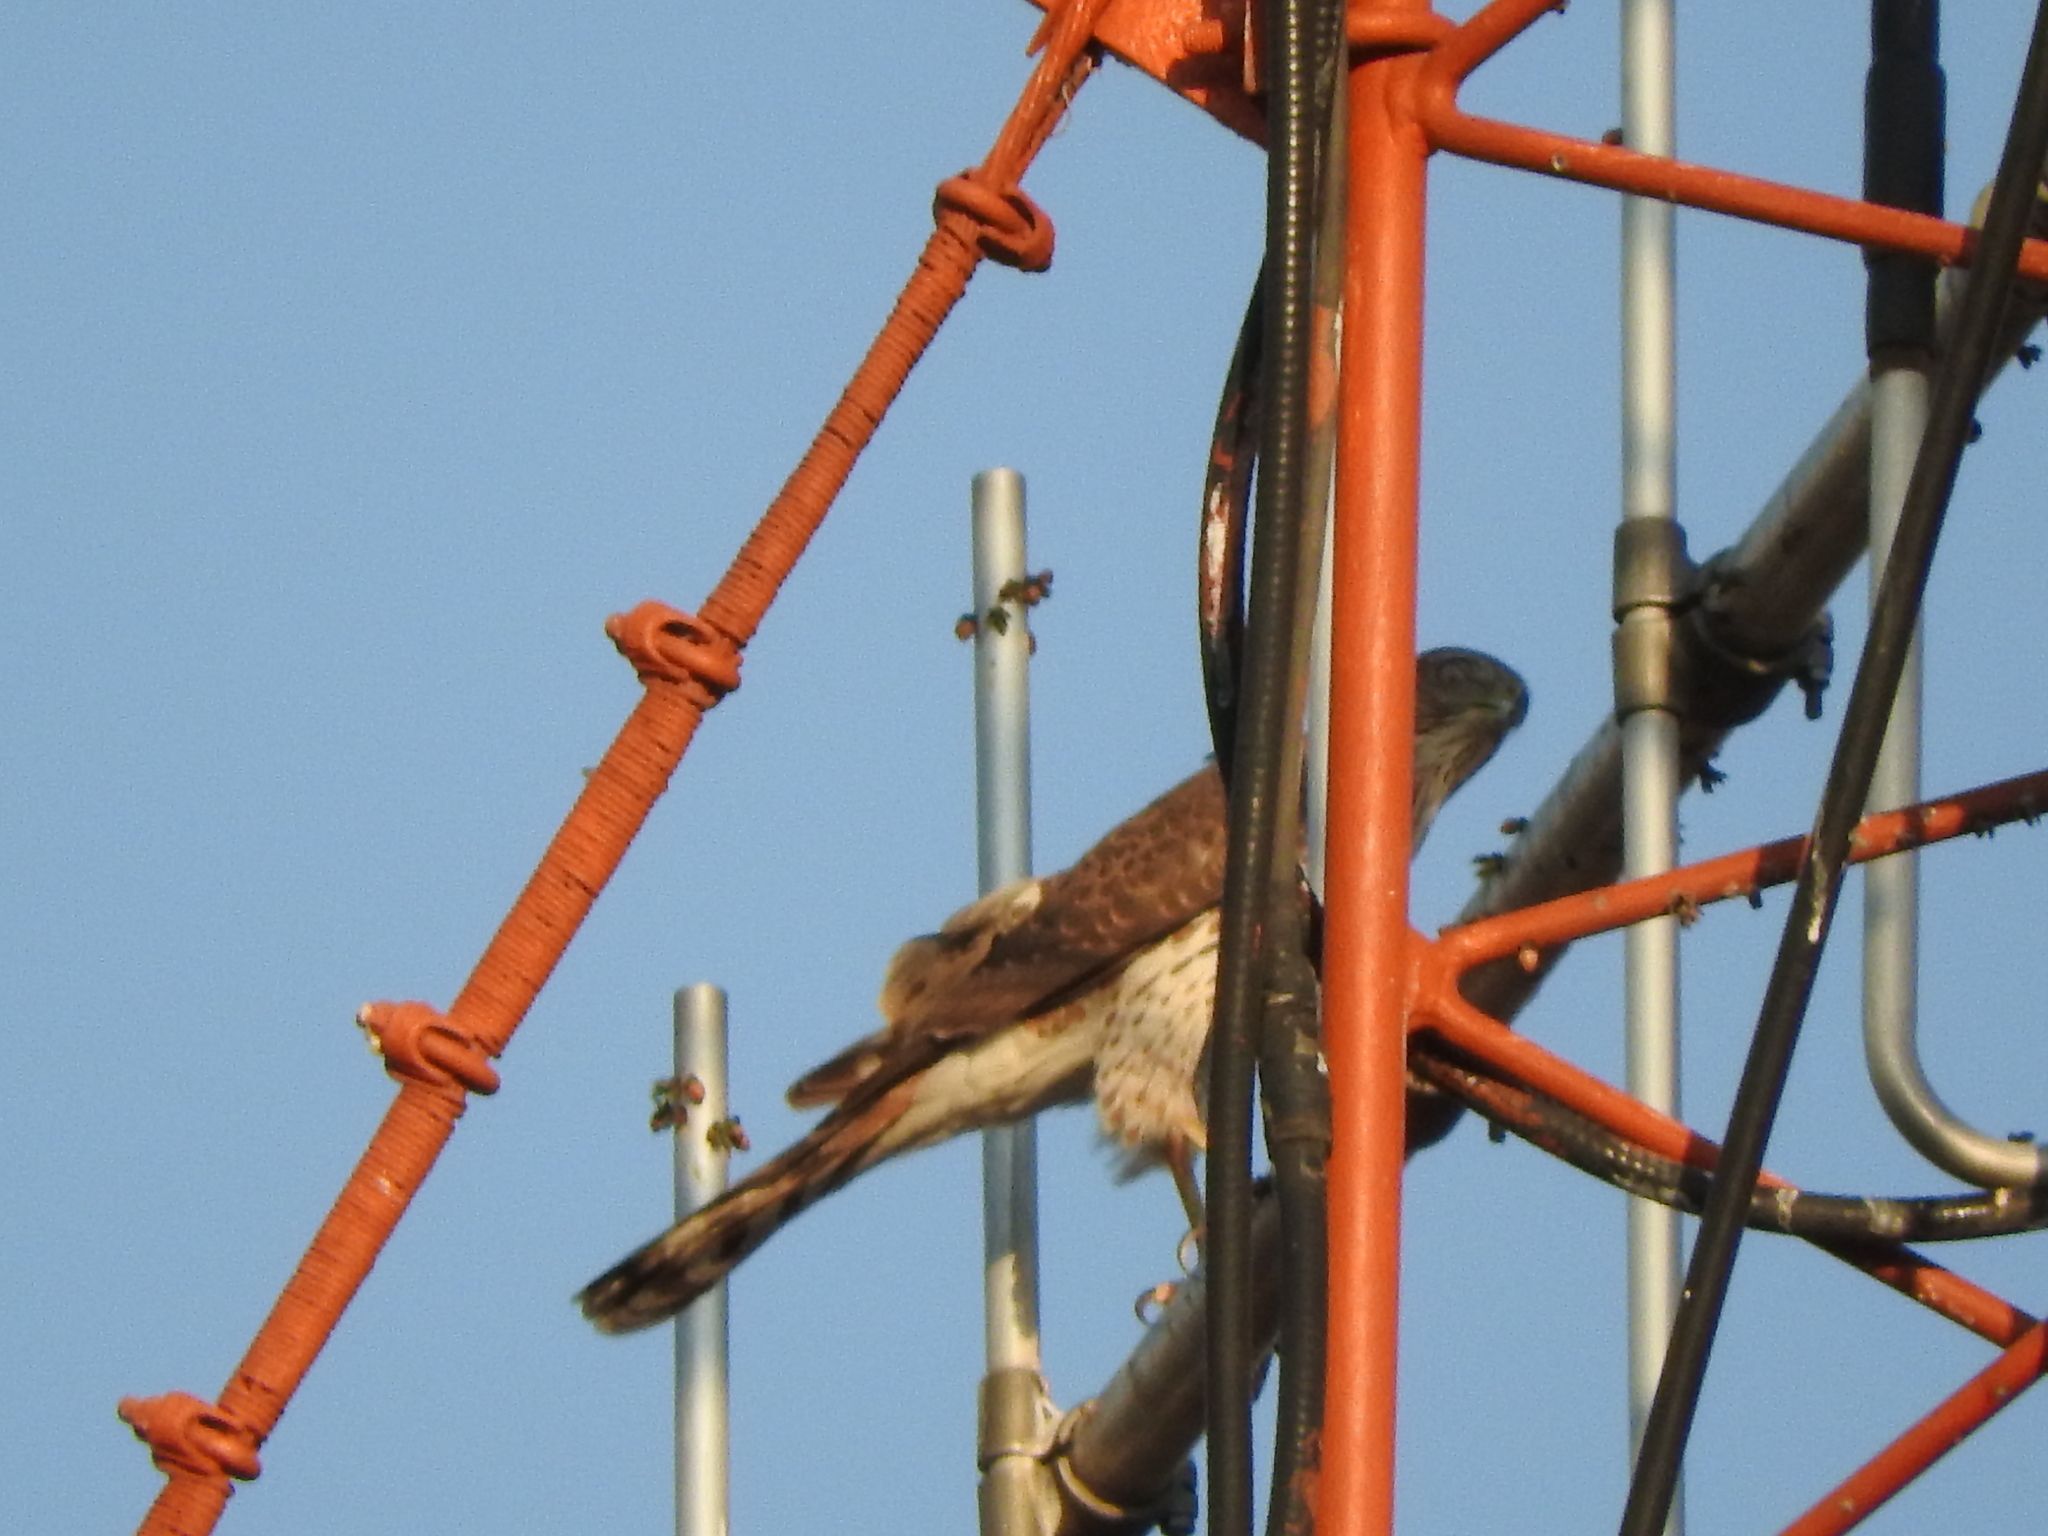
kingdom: Animalia
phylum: Chordata
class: Aves
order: Accipitriformes
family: Accipitridae
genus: Accipiter
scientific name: Accipiter cooperii
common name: Cooper's hawk
